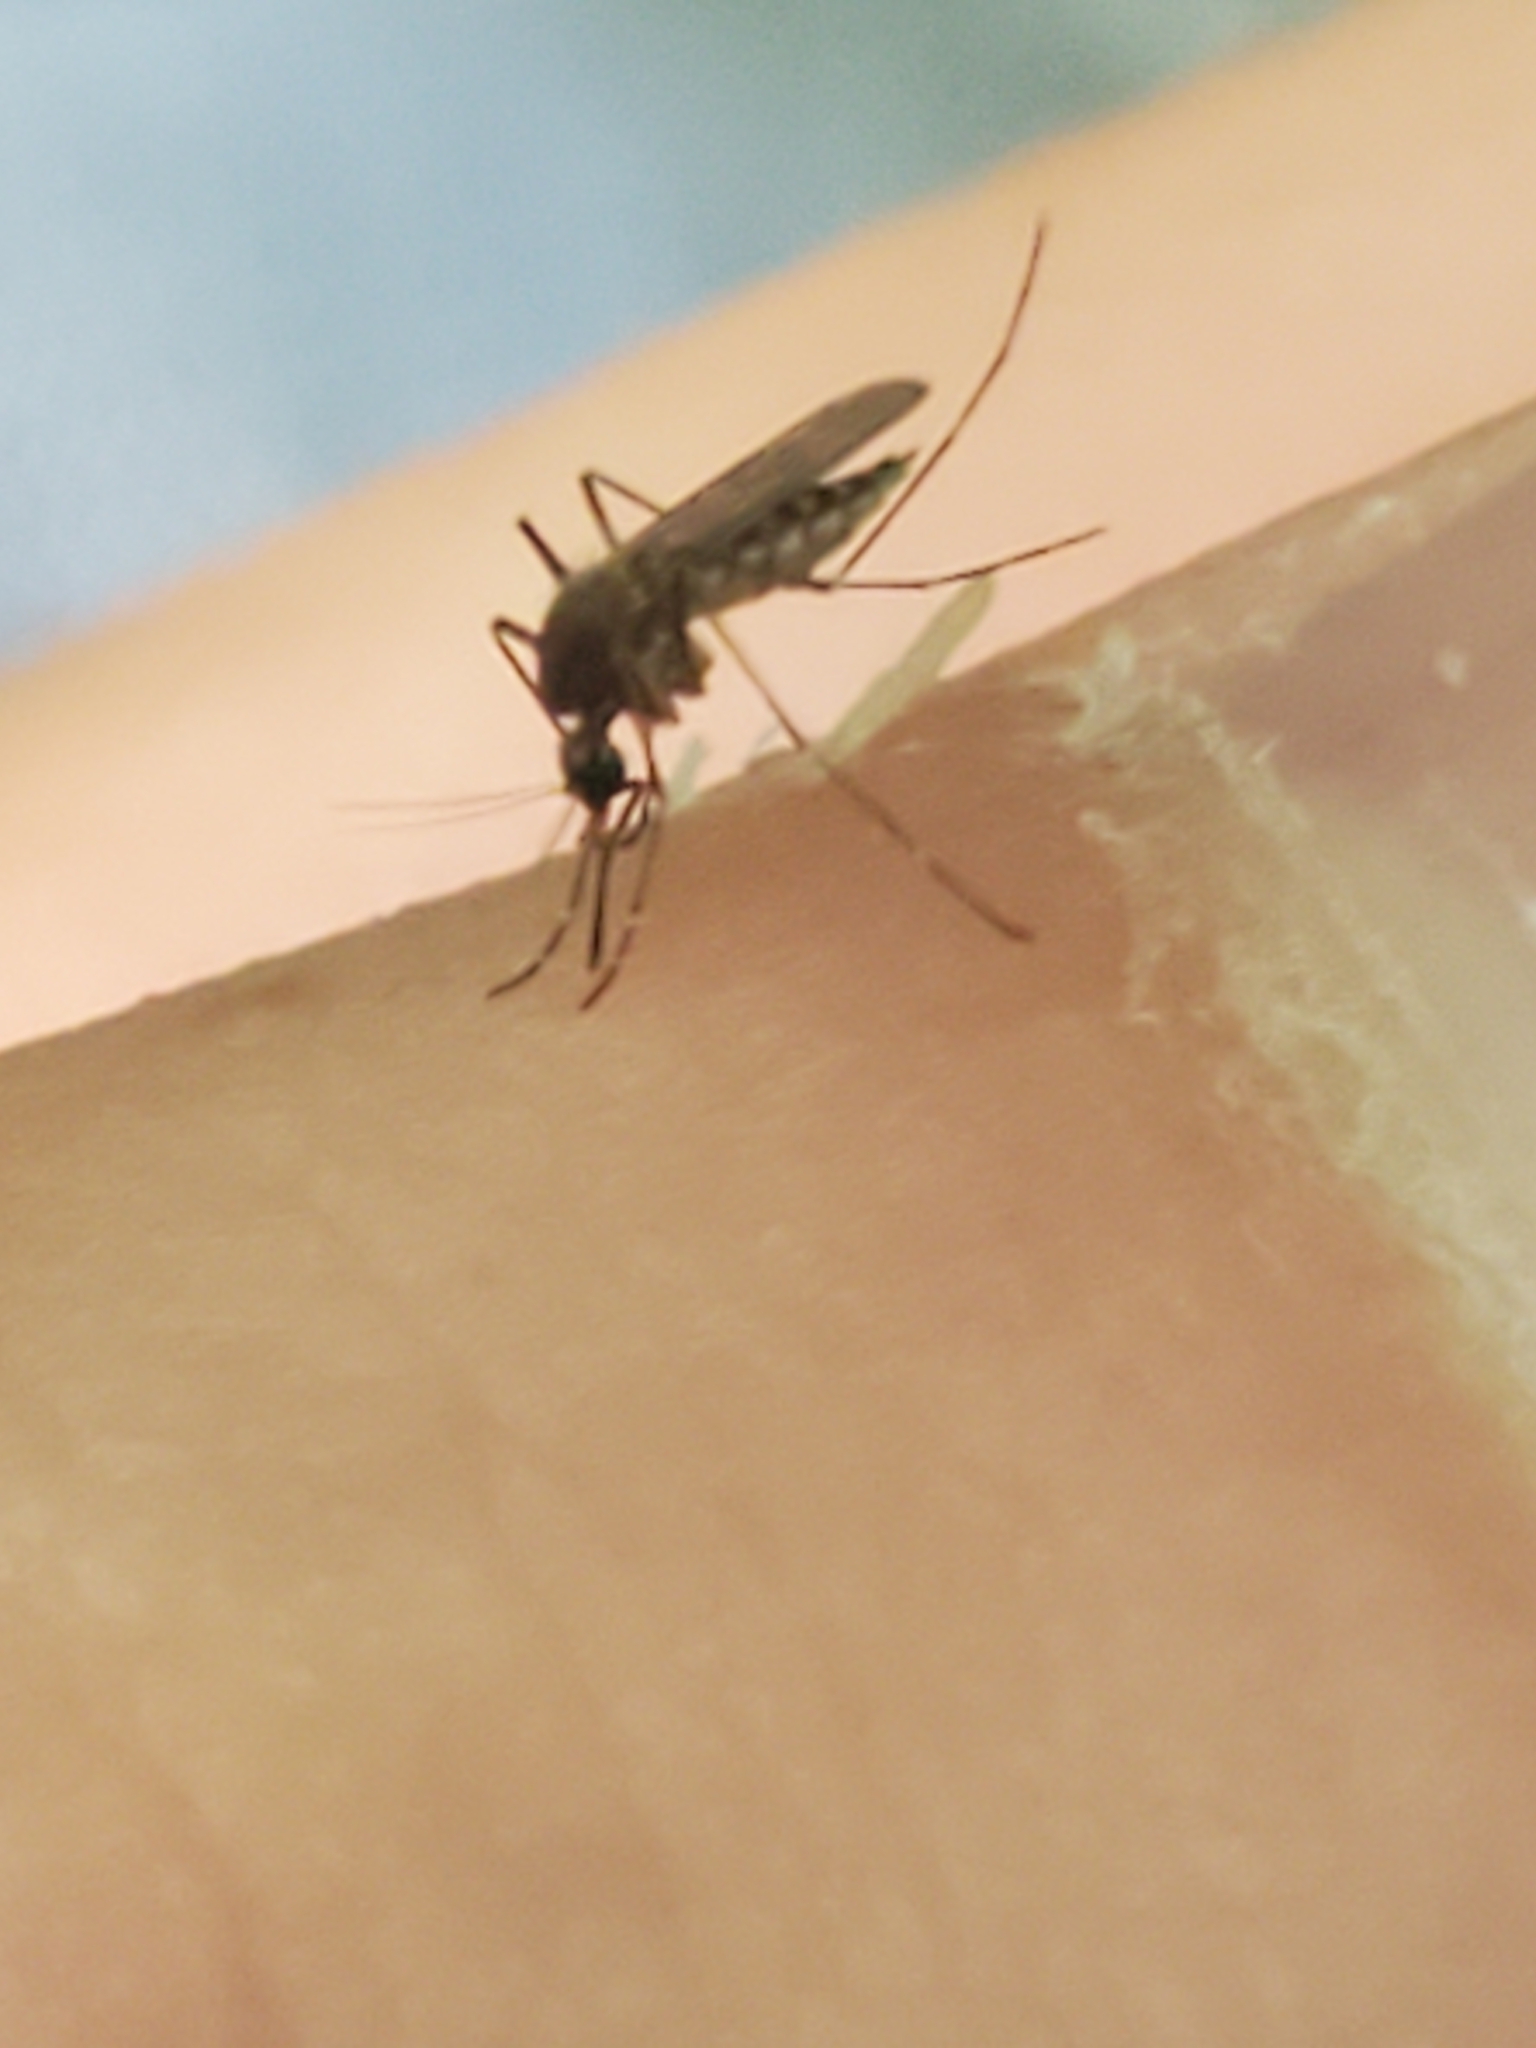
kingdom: Animalia
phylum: Arthropoda
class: Insecta
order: Diptera
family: Culicidae
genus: Aedes
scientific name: Aedes vexans
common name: Inland floodwater mosquito
